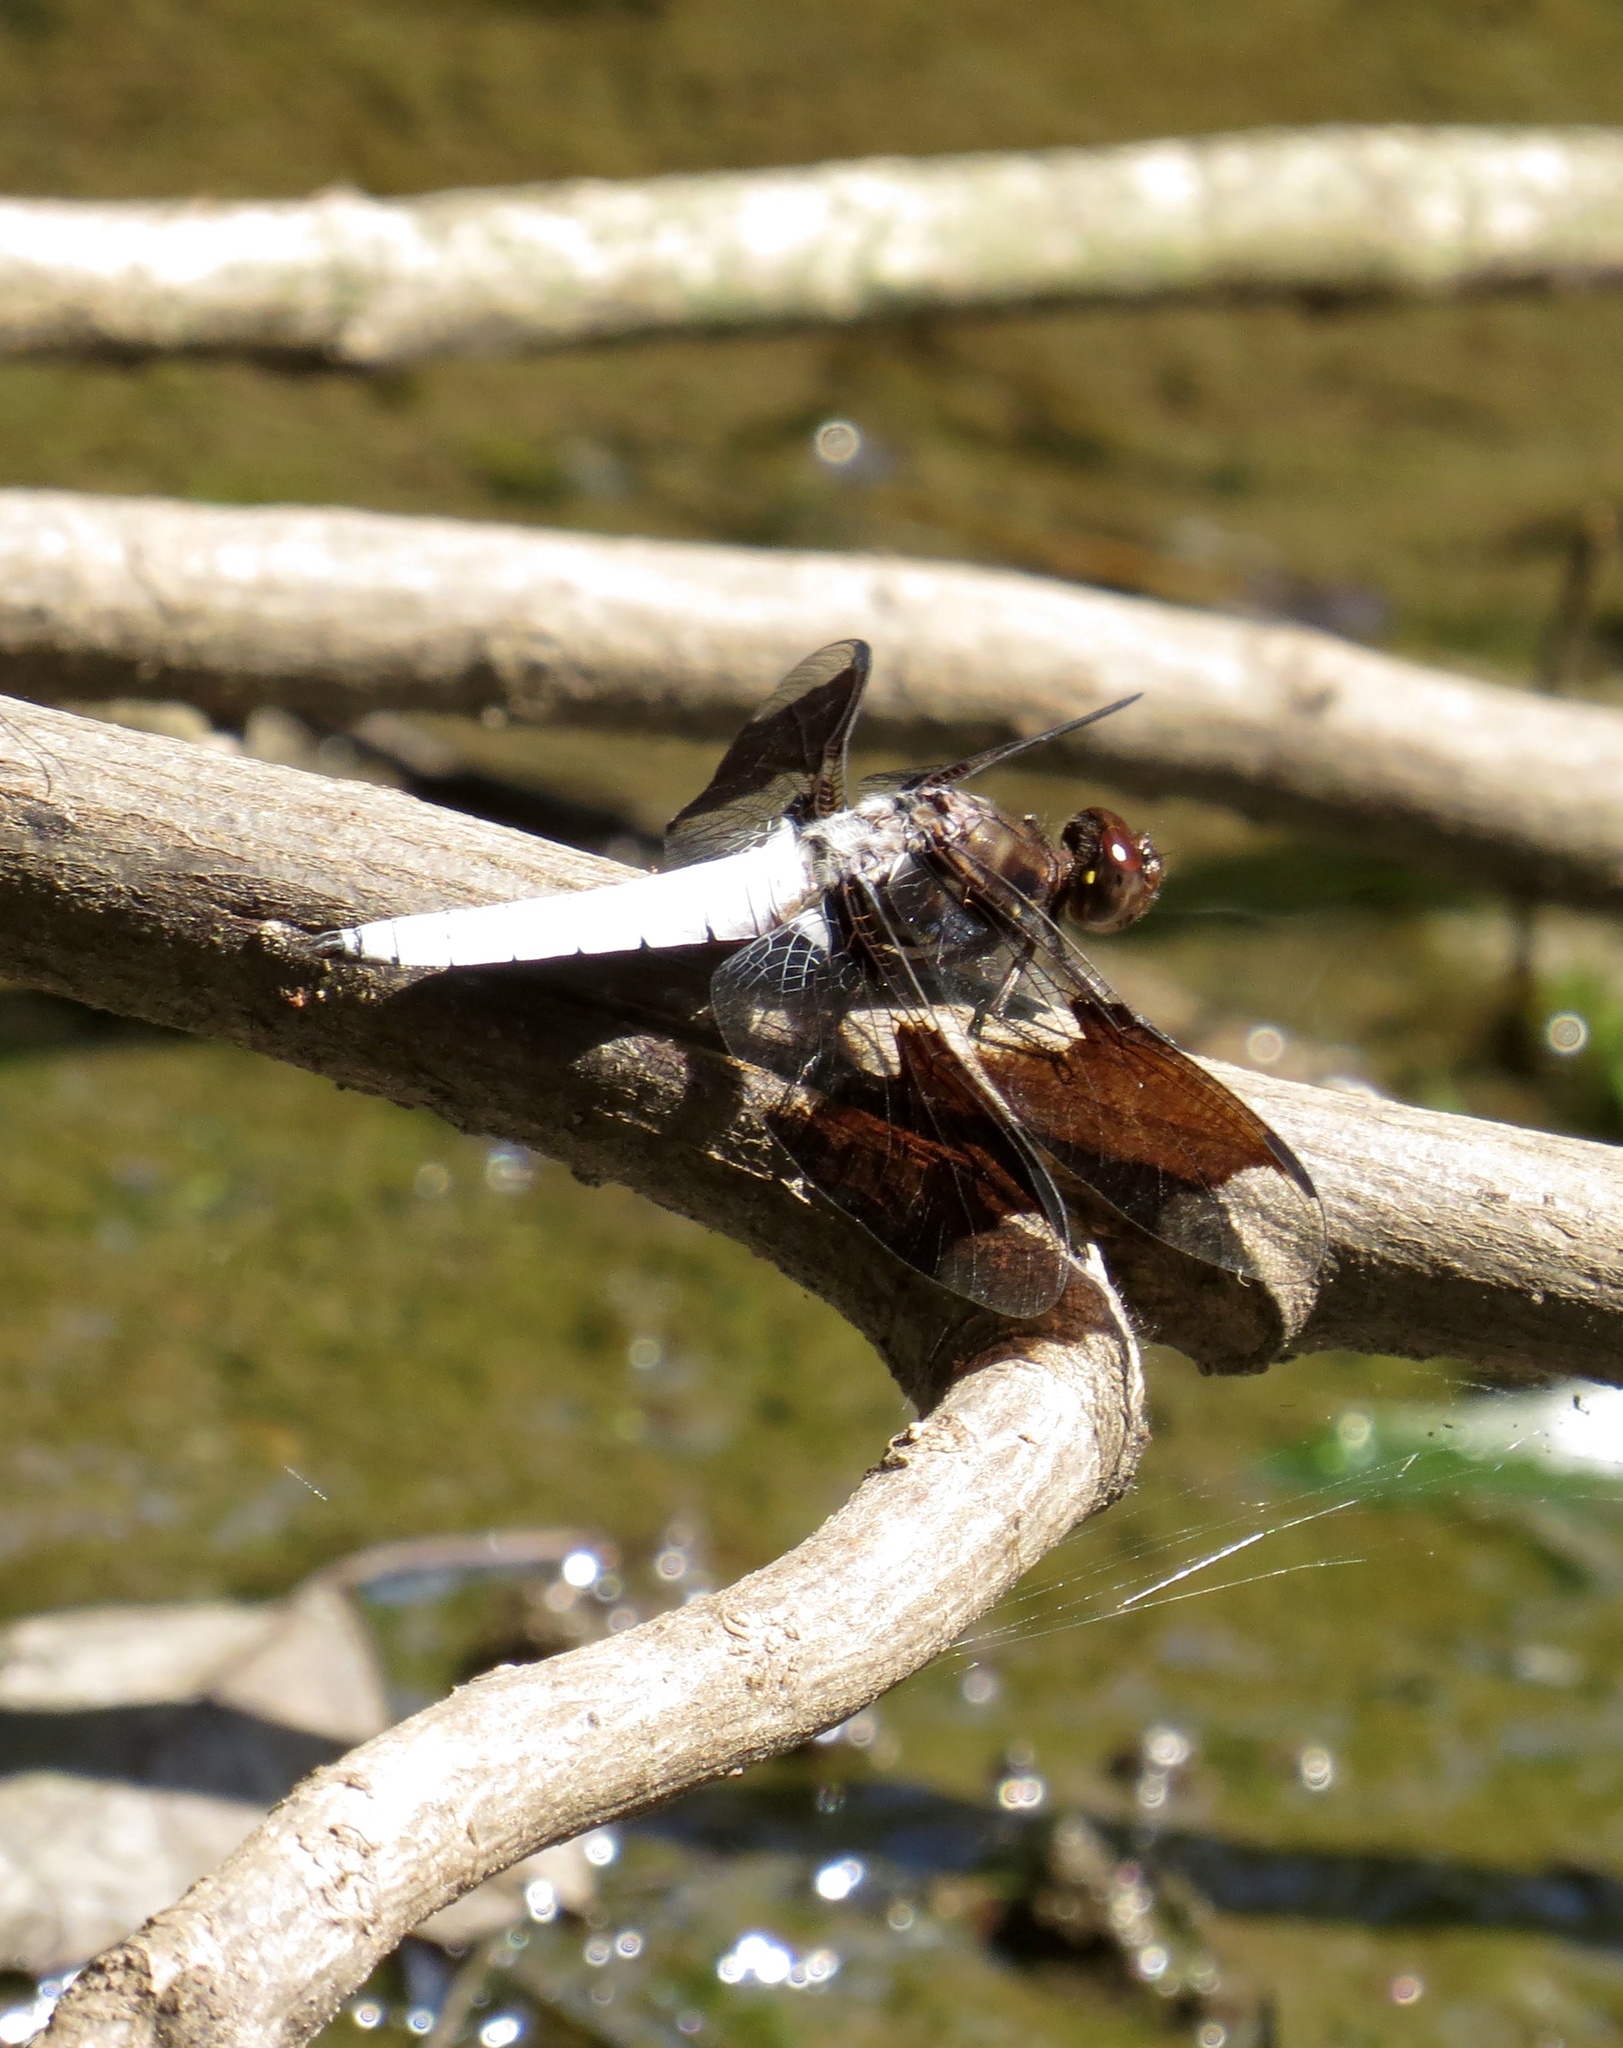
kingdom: Animalia
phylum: Arthropoda
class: Insecta
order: Odonata
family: Libellulidae
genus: Plathemis
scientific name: Plathemis lydia
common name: Common whitetail
